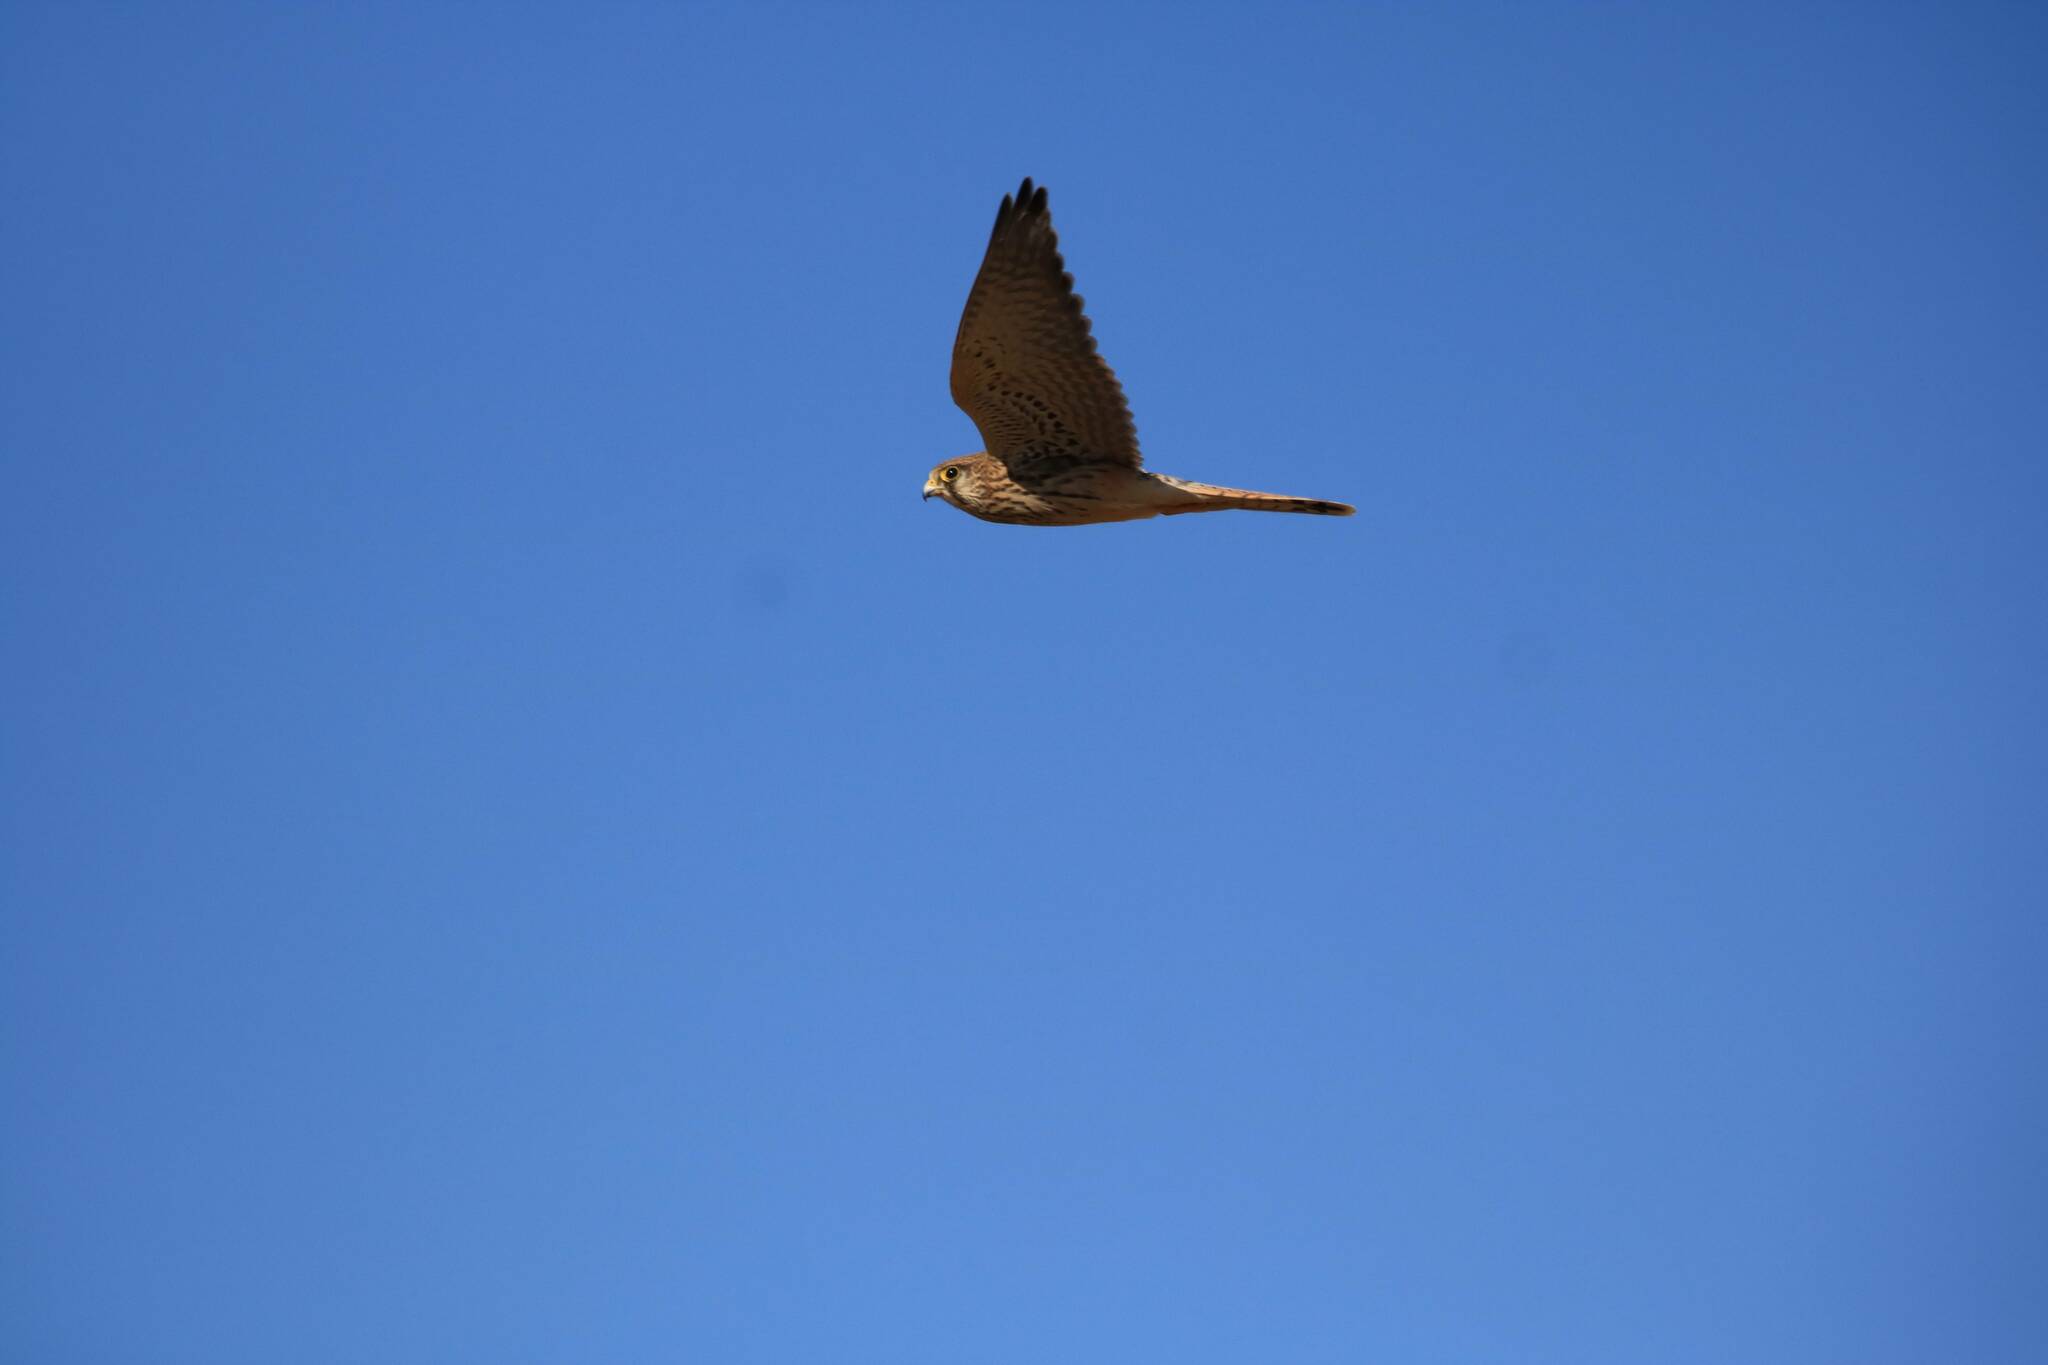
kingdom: Animalia
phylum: Chordata
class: Aves
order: Falconiformes
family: Falconidae
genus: Falco
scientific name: Falco tinnunculus
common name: Common kestrel
